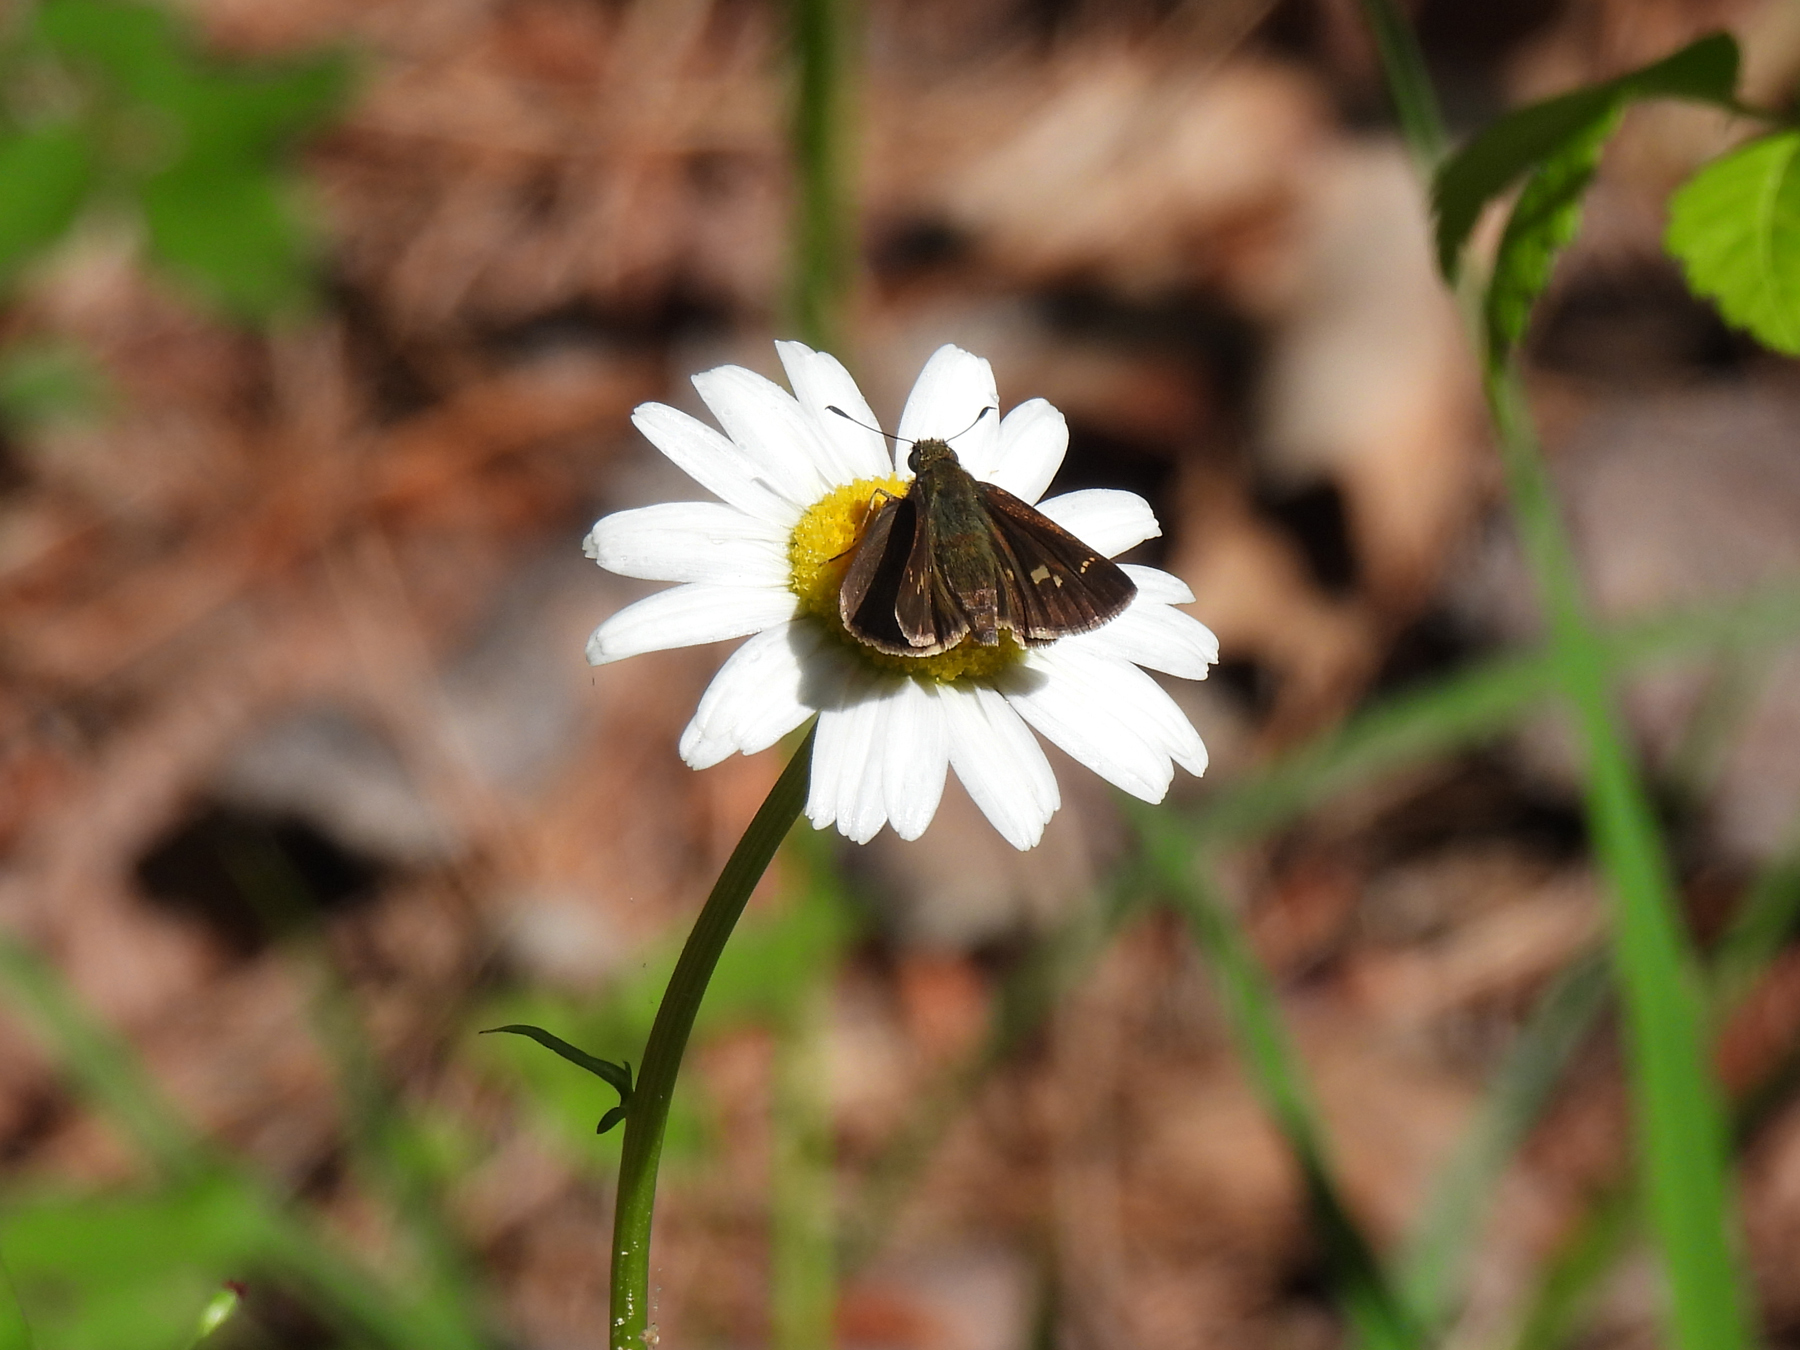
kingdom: Animalia
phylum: Arthropoda
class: Insecta
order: Lepidoptera
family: Hesperiidae
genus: Vernia
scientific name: Vernia verna
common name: Little glassywing
